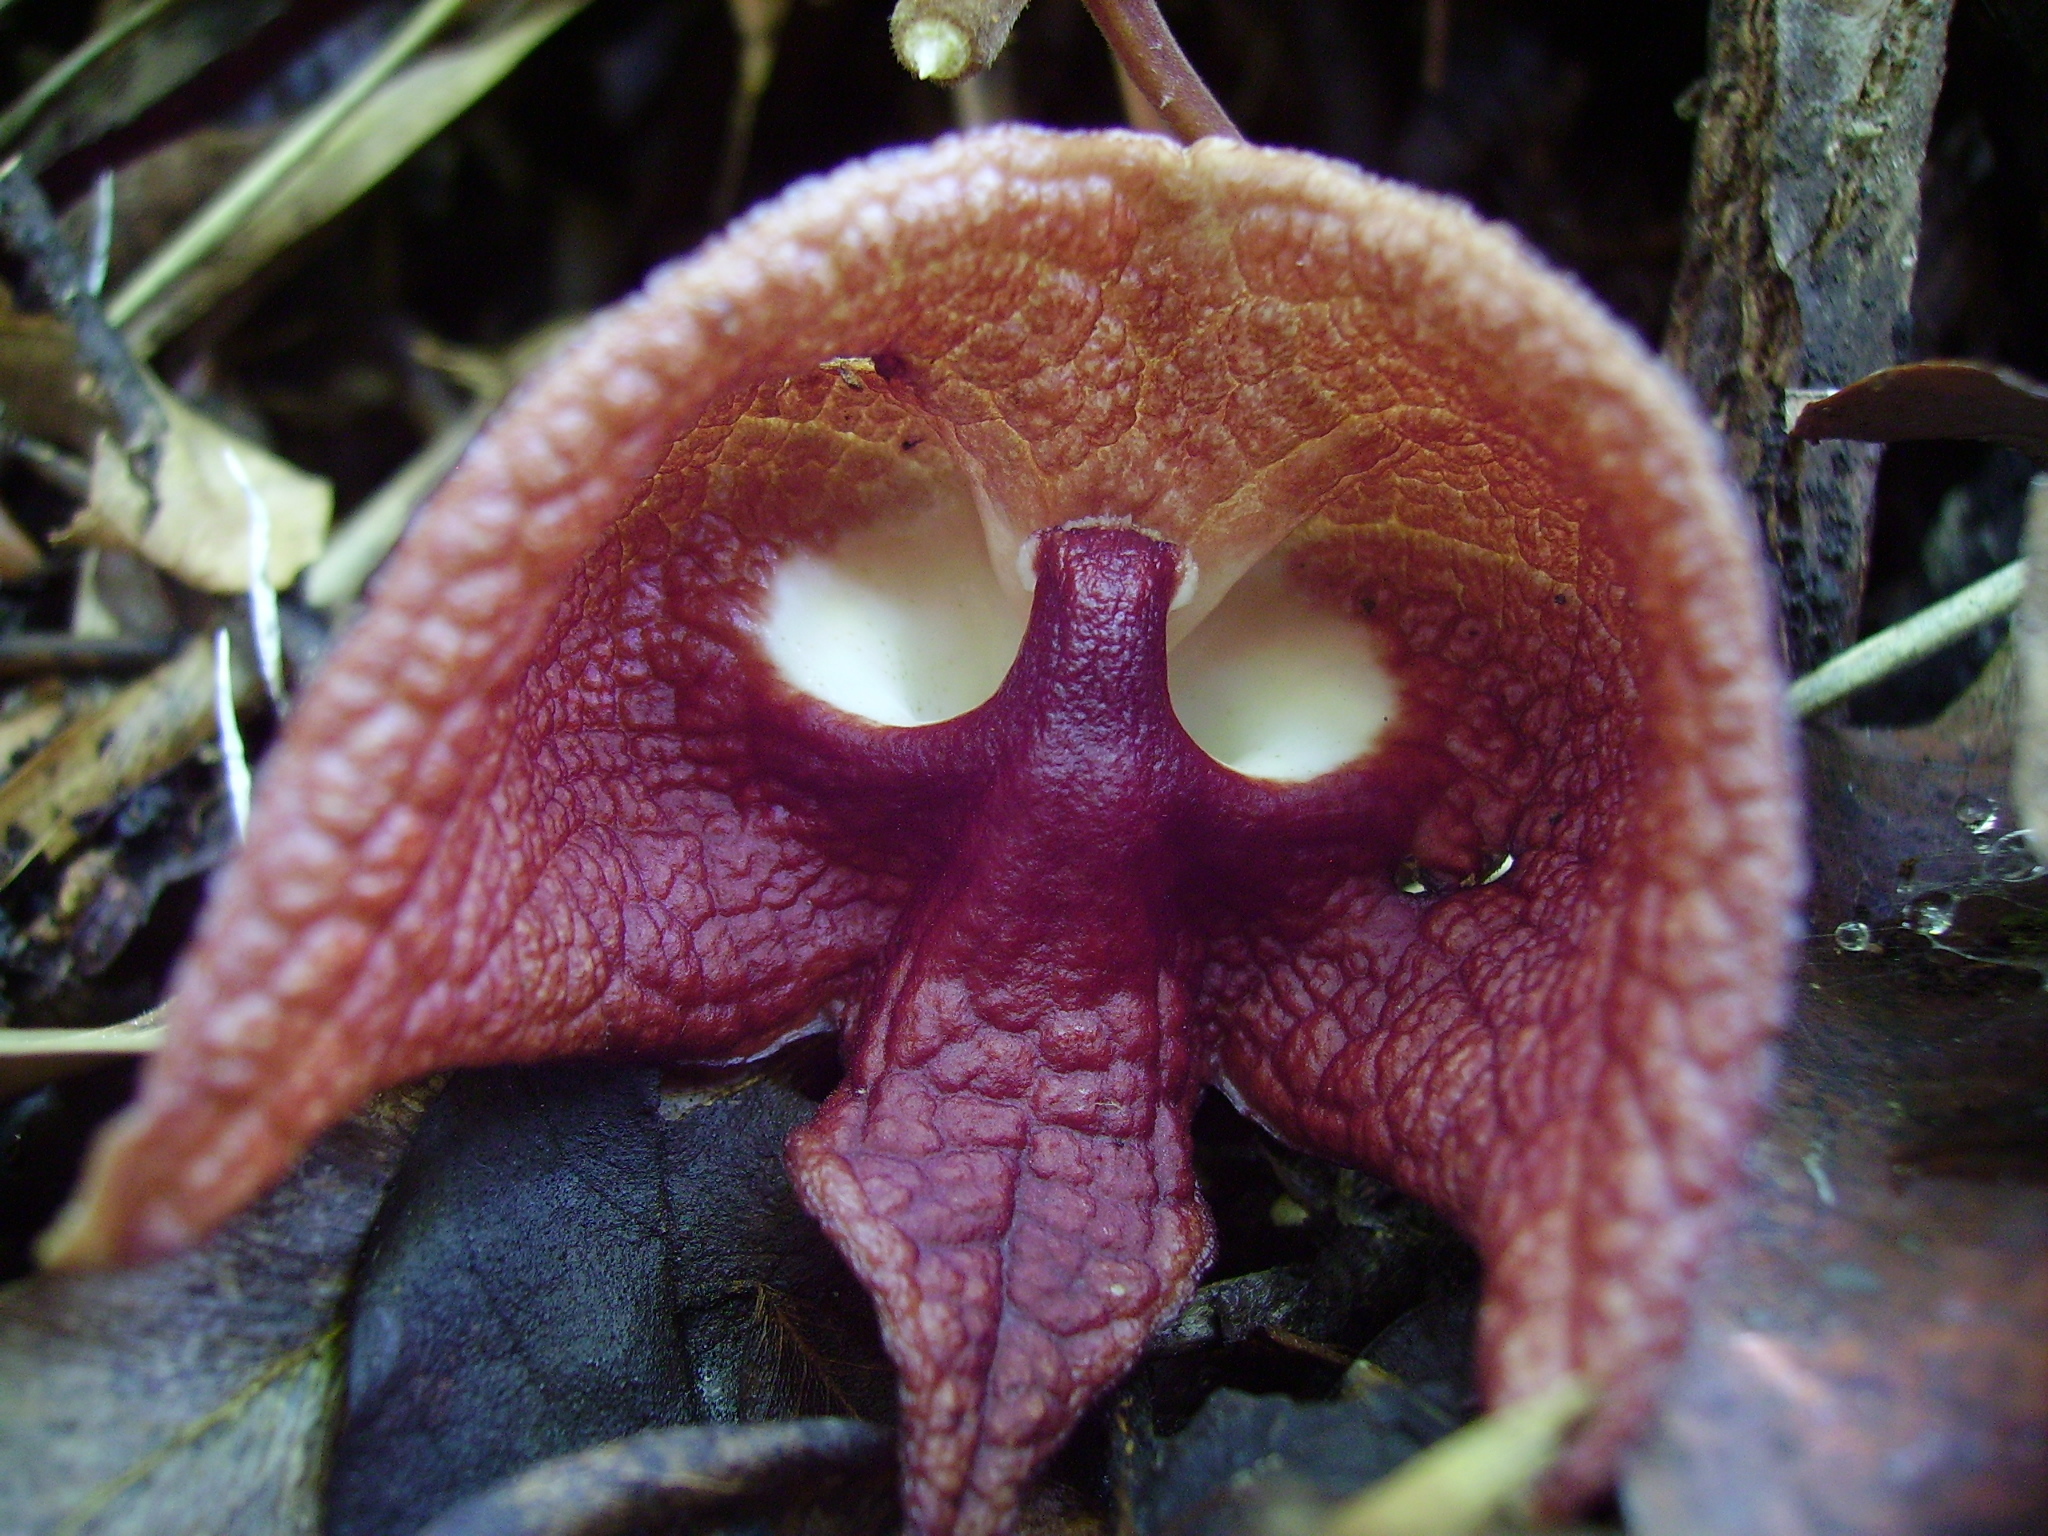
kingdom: Plantae
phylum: Tracheophyta
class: Magnoliopsida
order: Piperales
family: Aristolochiaceae
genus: Isotrema
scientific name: Isotrema arborea
